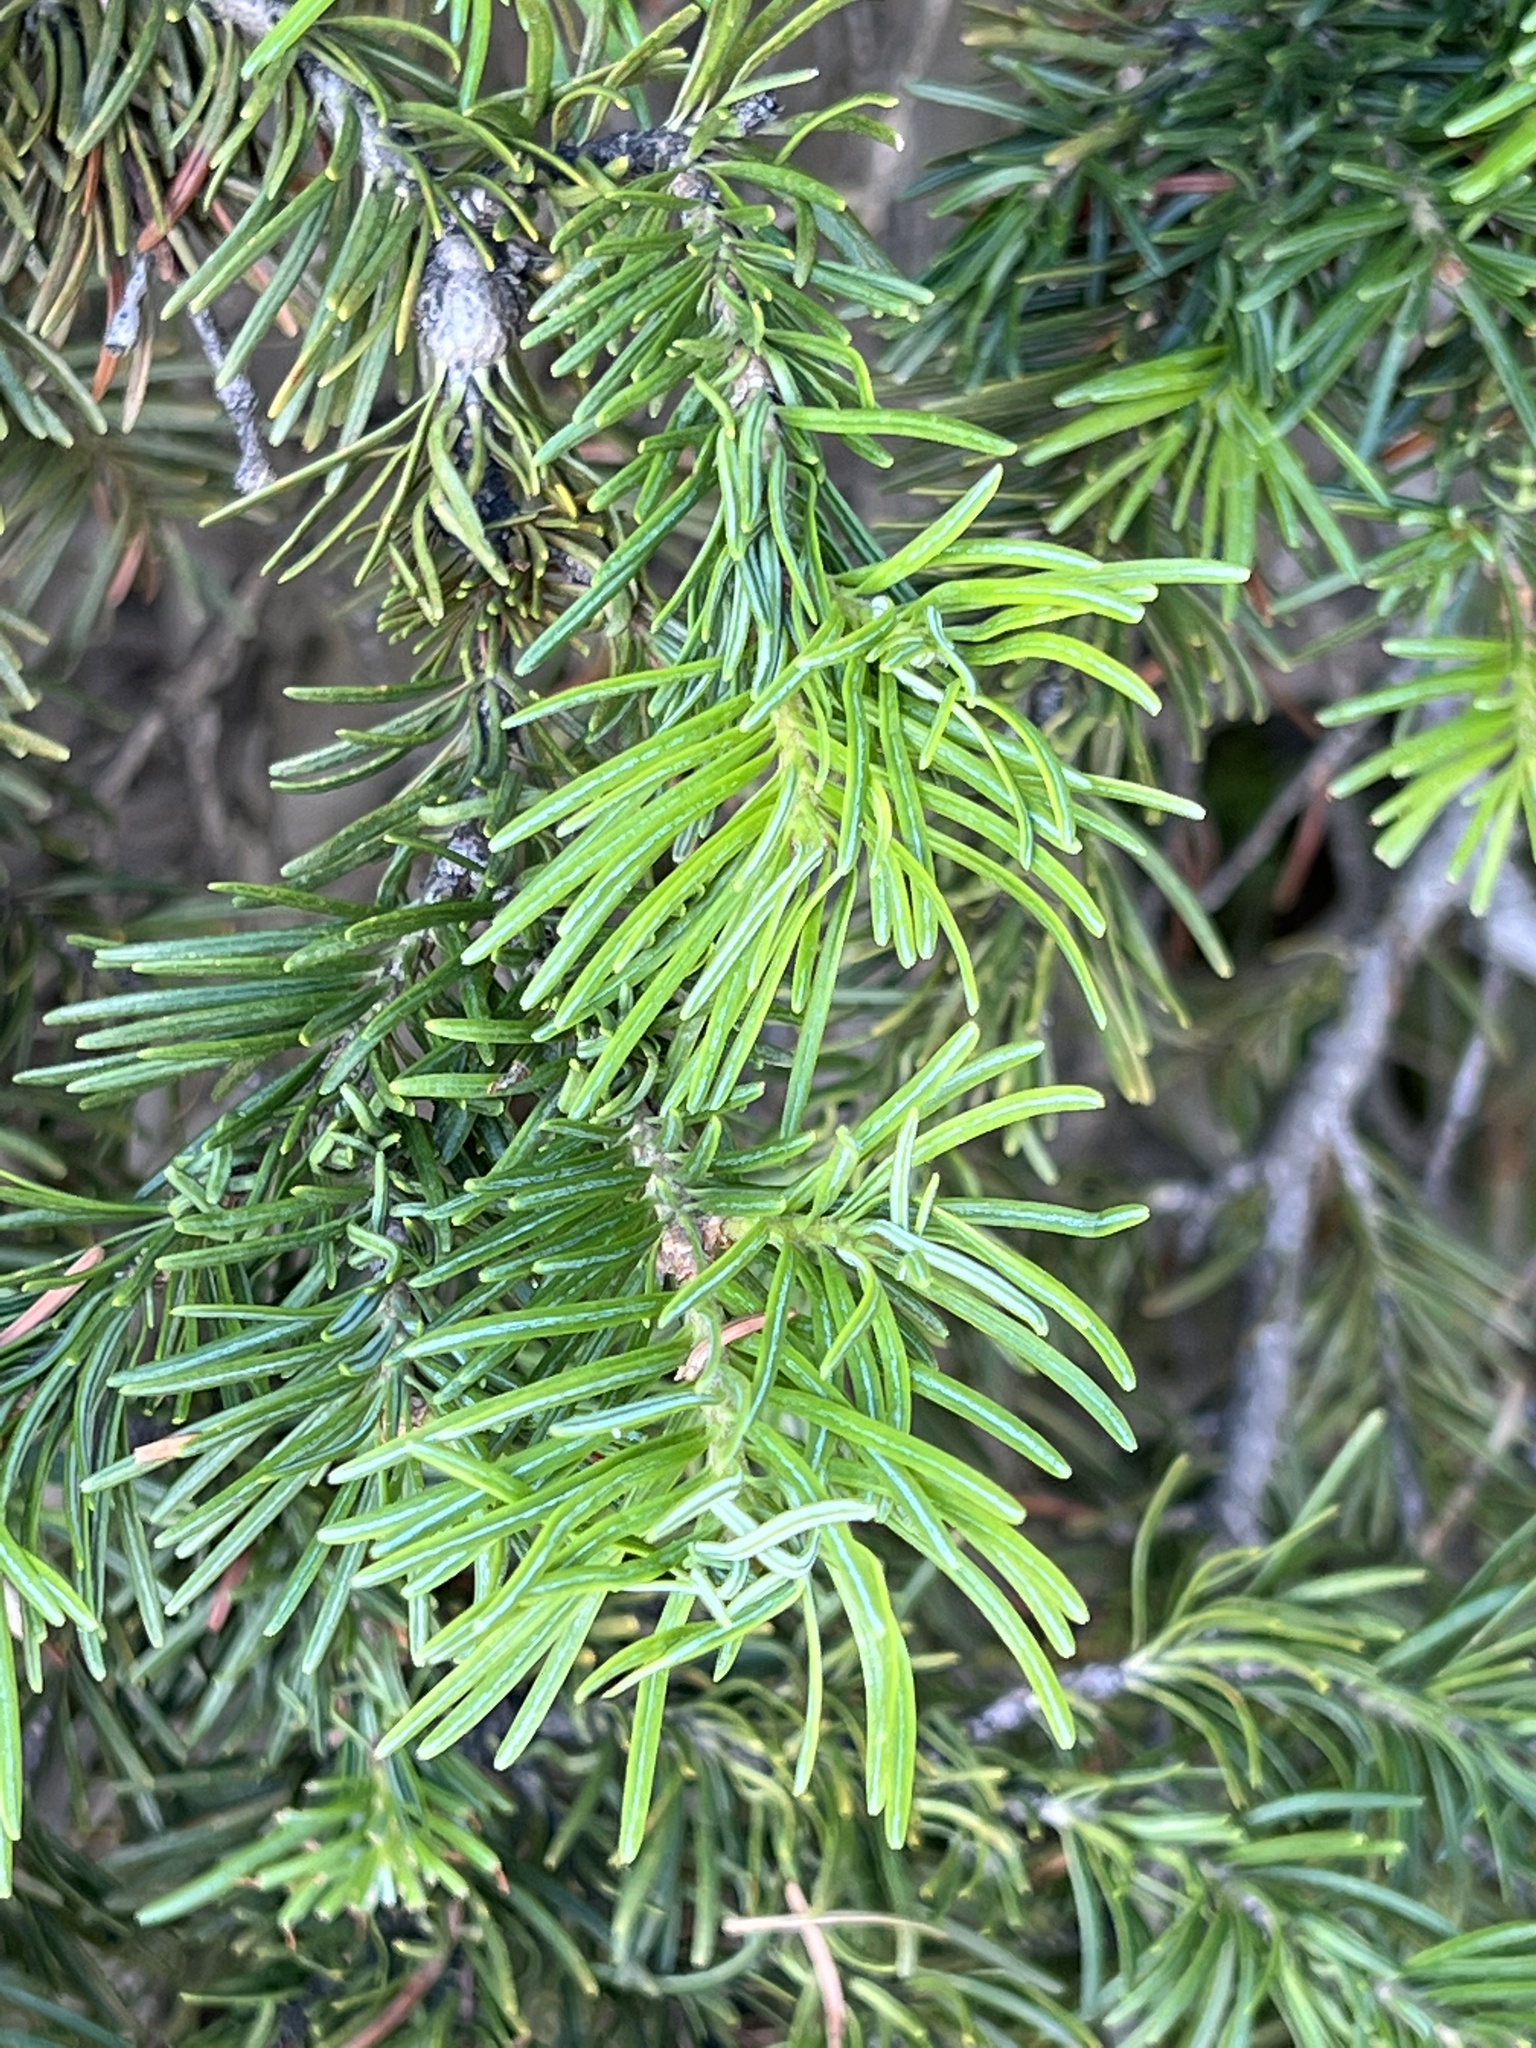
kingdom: Plantae
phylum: Tracheophyta
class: Pinopsida
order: Pinales
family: Pinaceae
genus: Abies
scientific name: Abies lasiocarpa
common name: Subalpine fir
